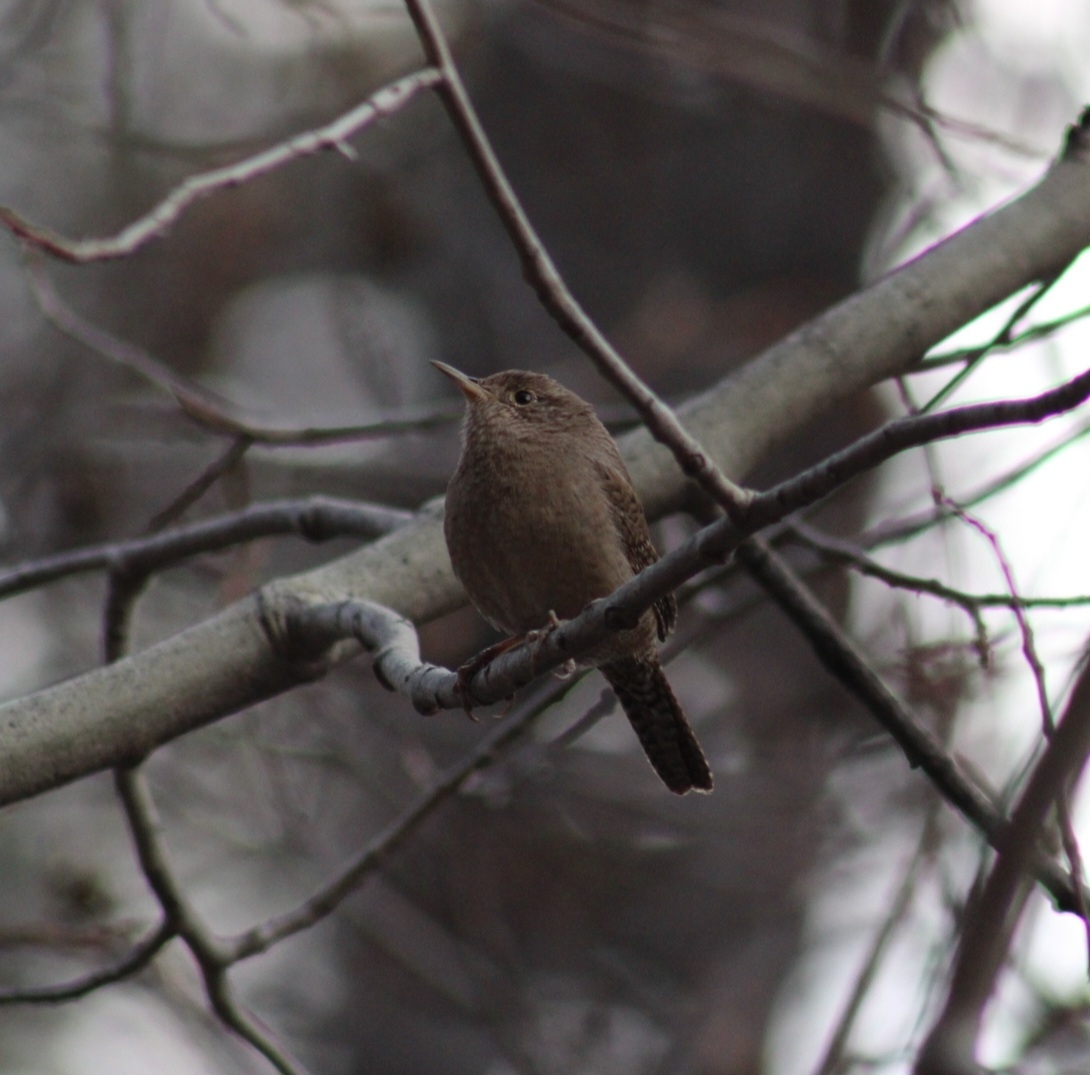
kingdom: Animalia
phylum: Chordata
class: Aves
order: Passeriformes
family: Troglodytidae
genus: Troglodytes
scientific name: Troglodytes aedon
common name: House wren
